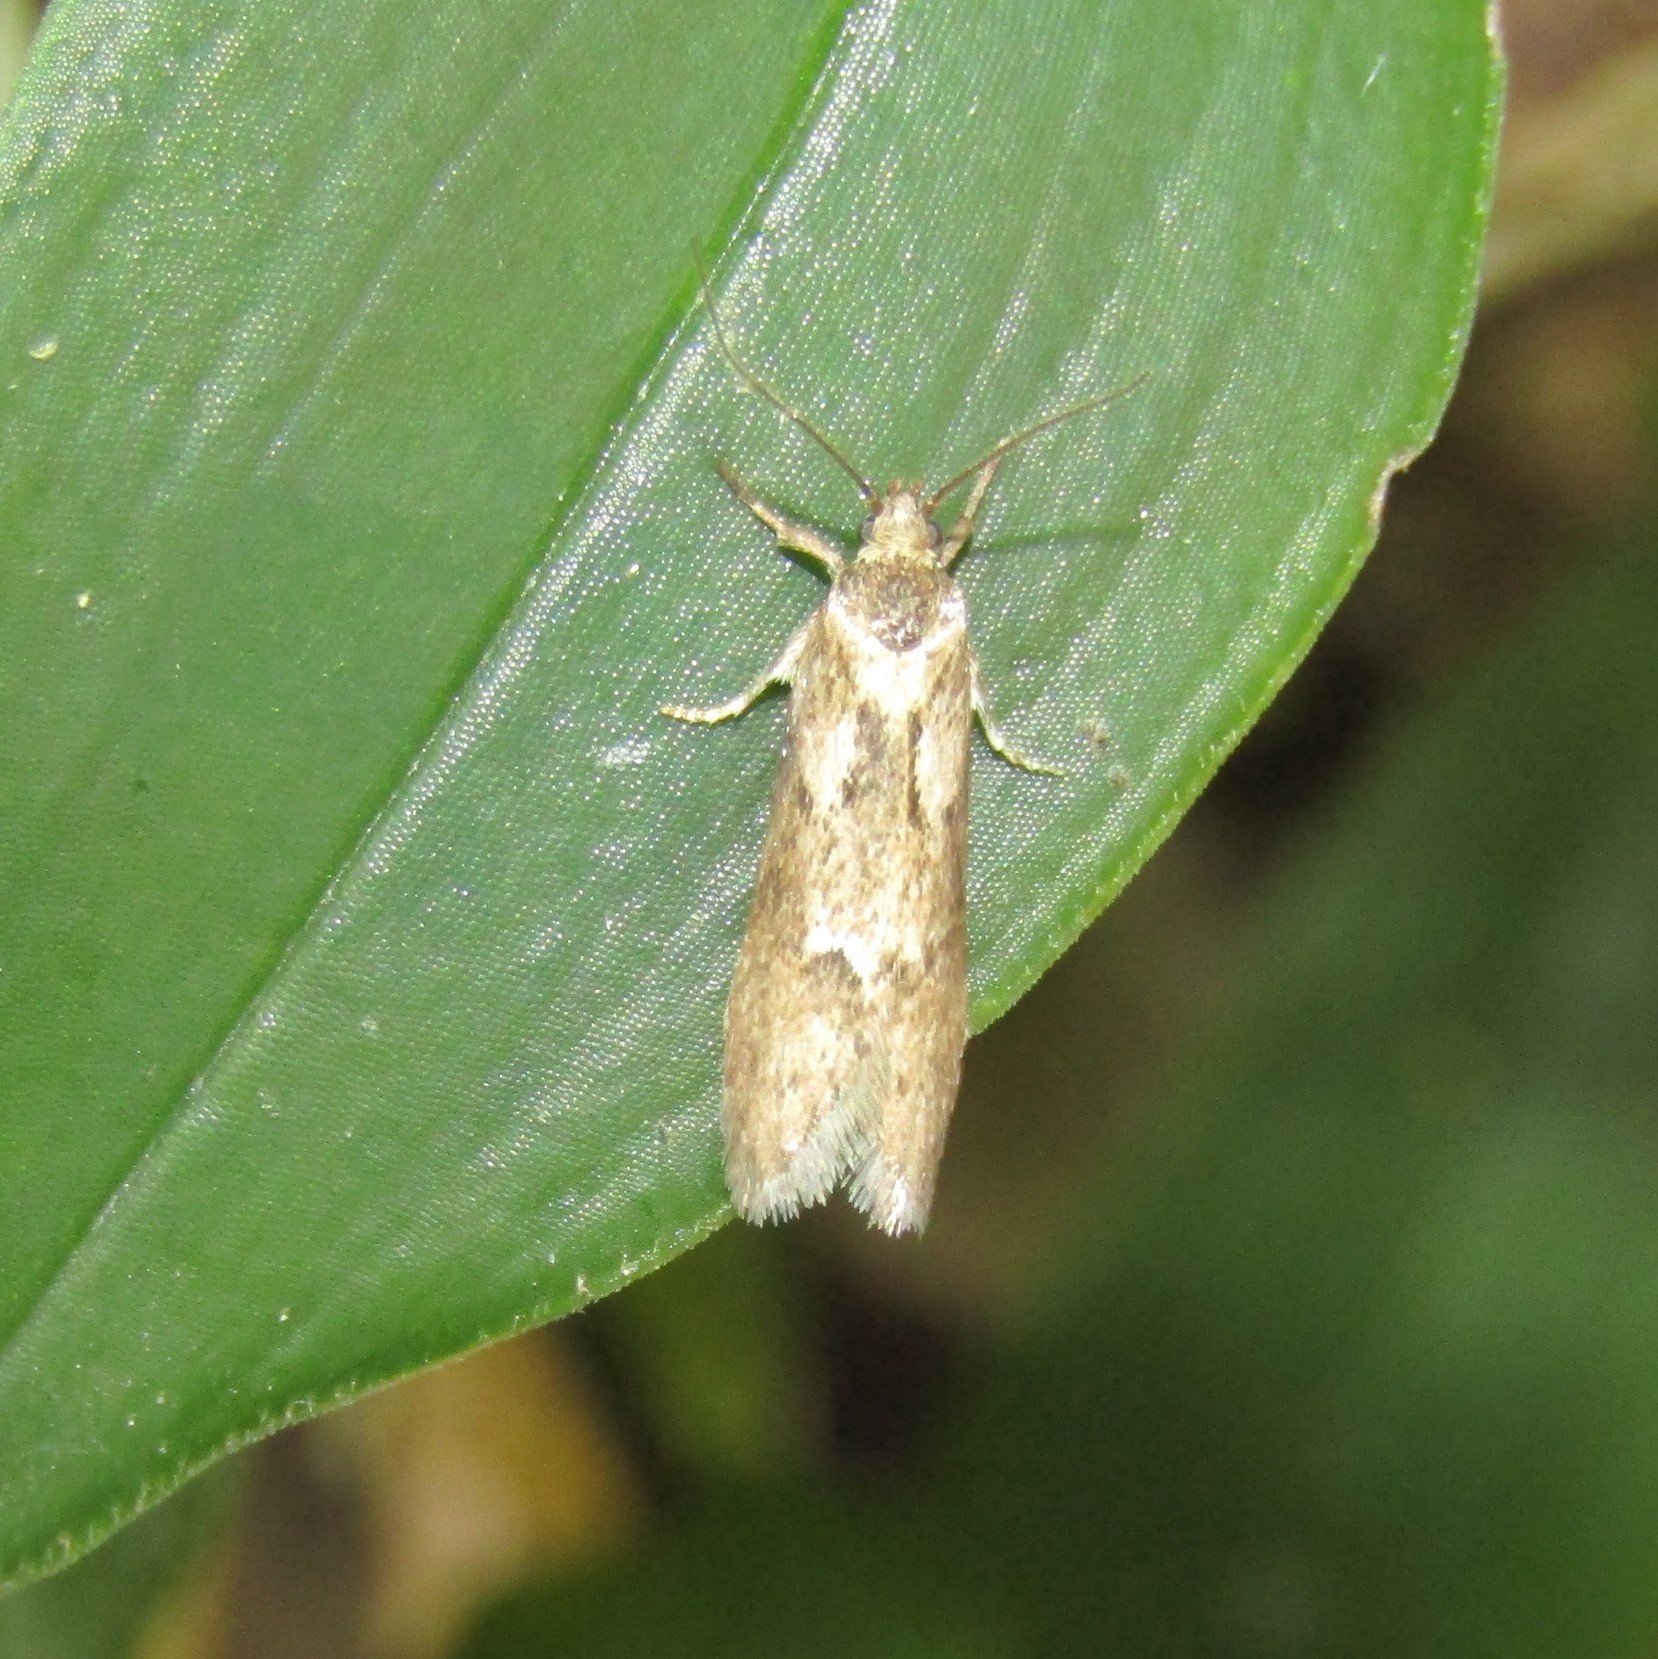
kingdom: Animalia
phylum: Arthropoda
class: Insecta
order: Lepidoptera
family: Oecophoridae
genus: Chersadaula
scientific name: Chersadaula ochrogastra
